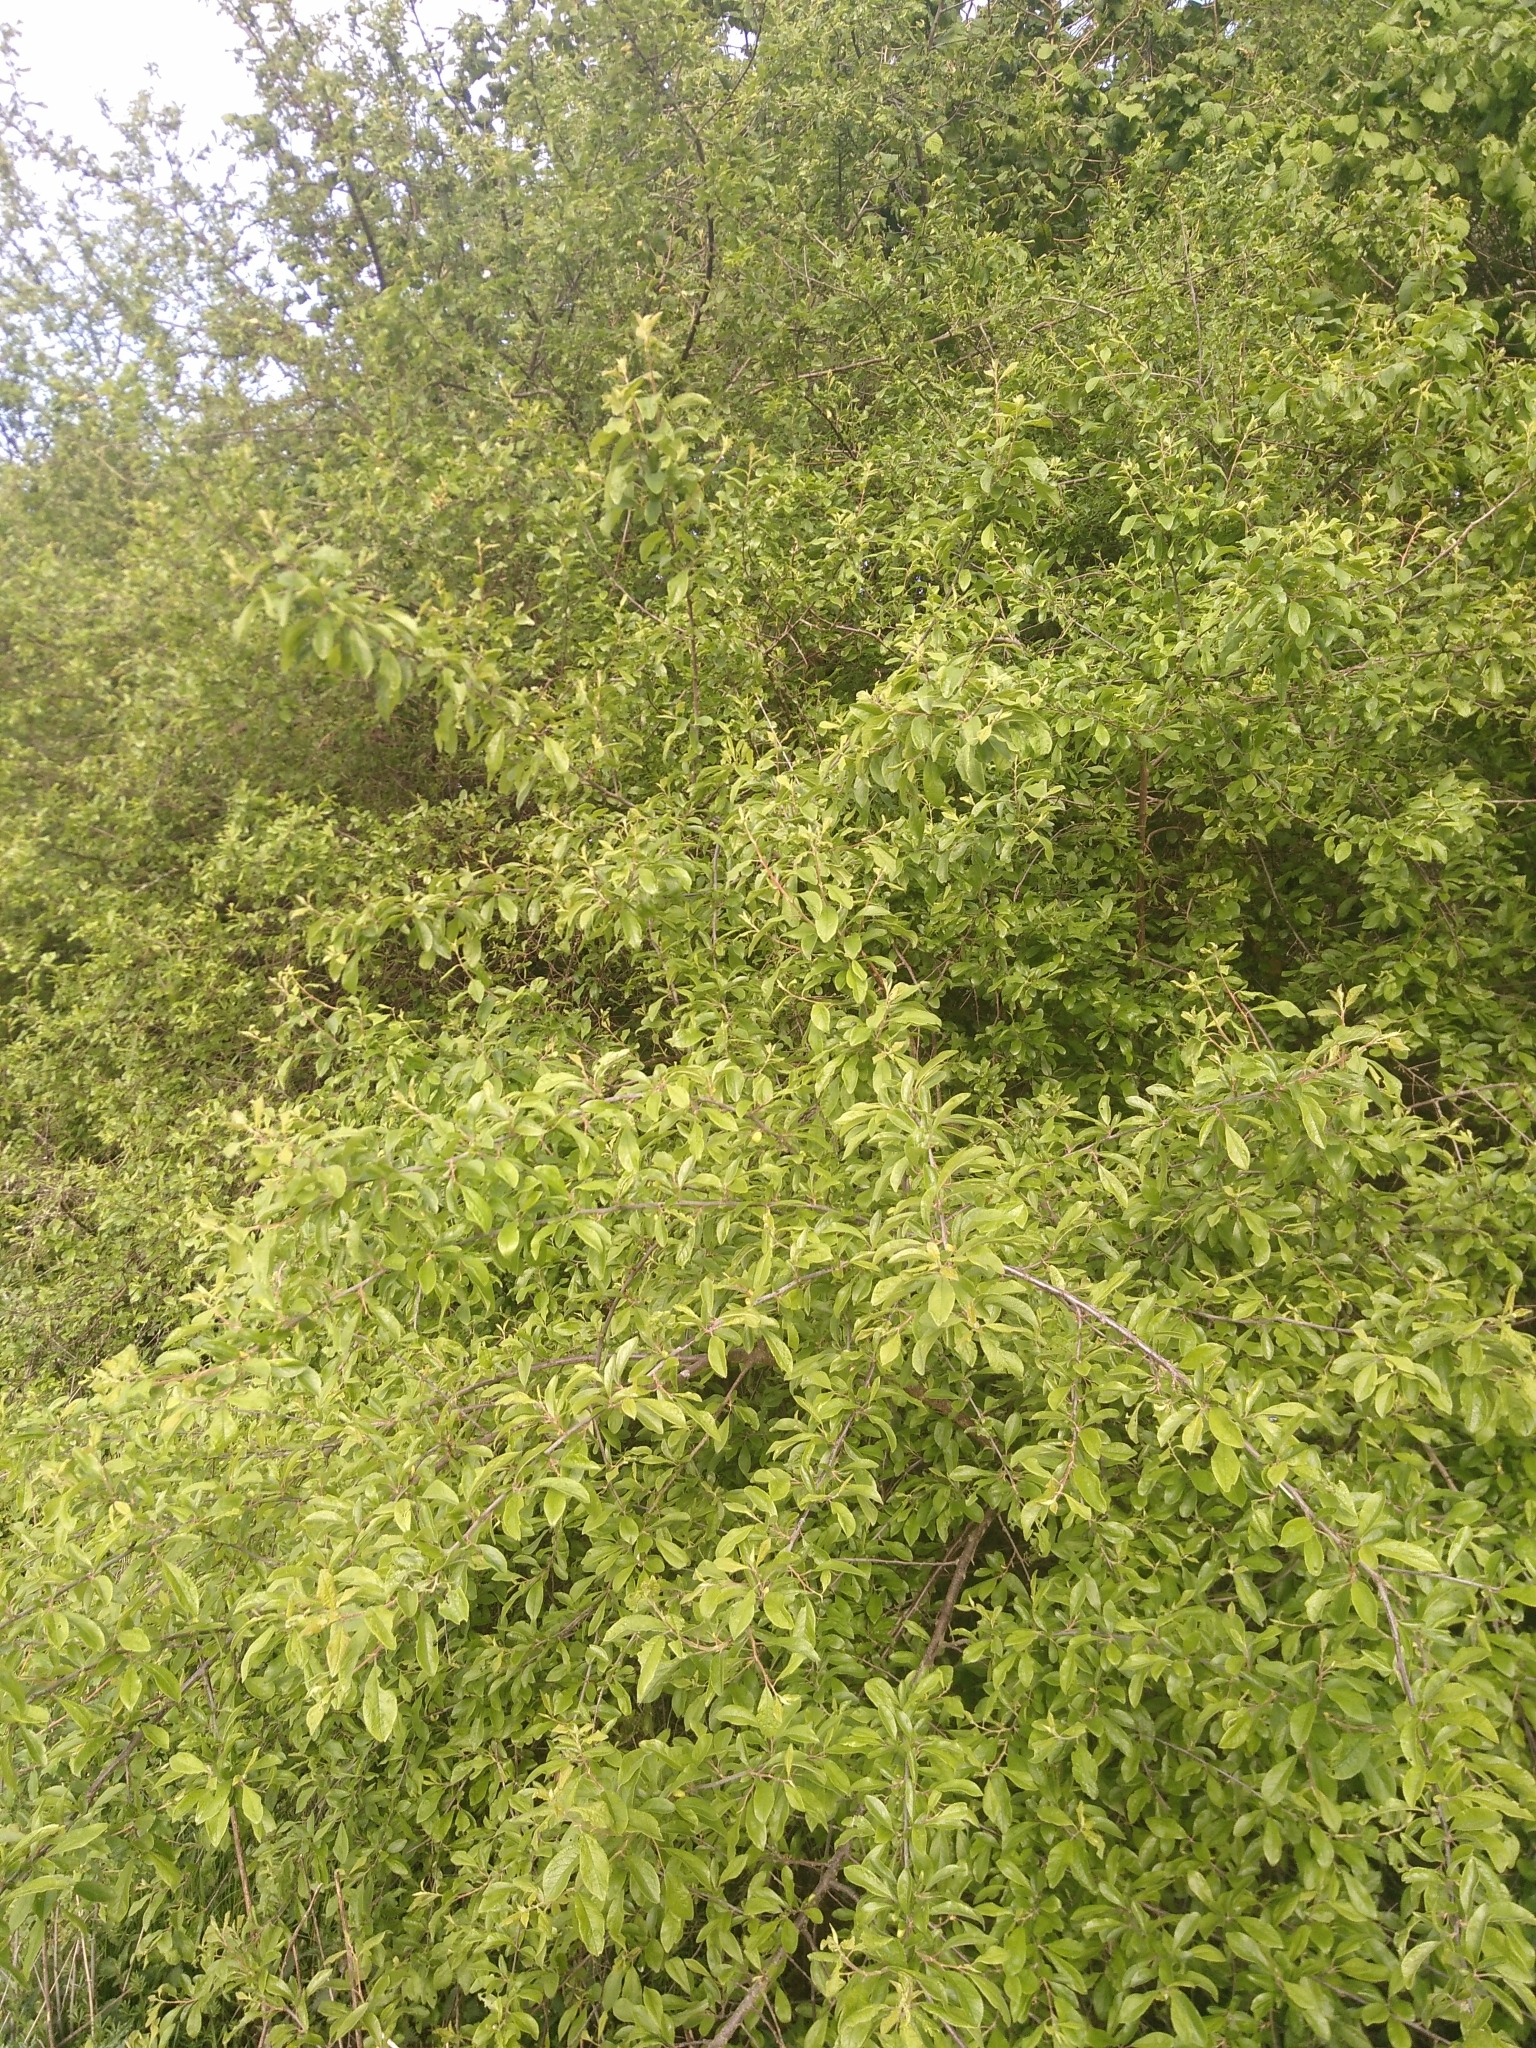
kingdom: Plantae
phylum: Tracheophyta
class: Magnoliopsida
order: Rosales
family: Rosaceae
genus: Prunus
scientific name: Prunus spinosa
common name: Blackthorn
